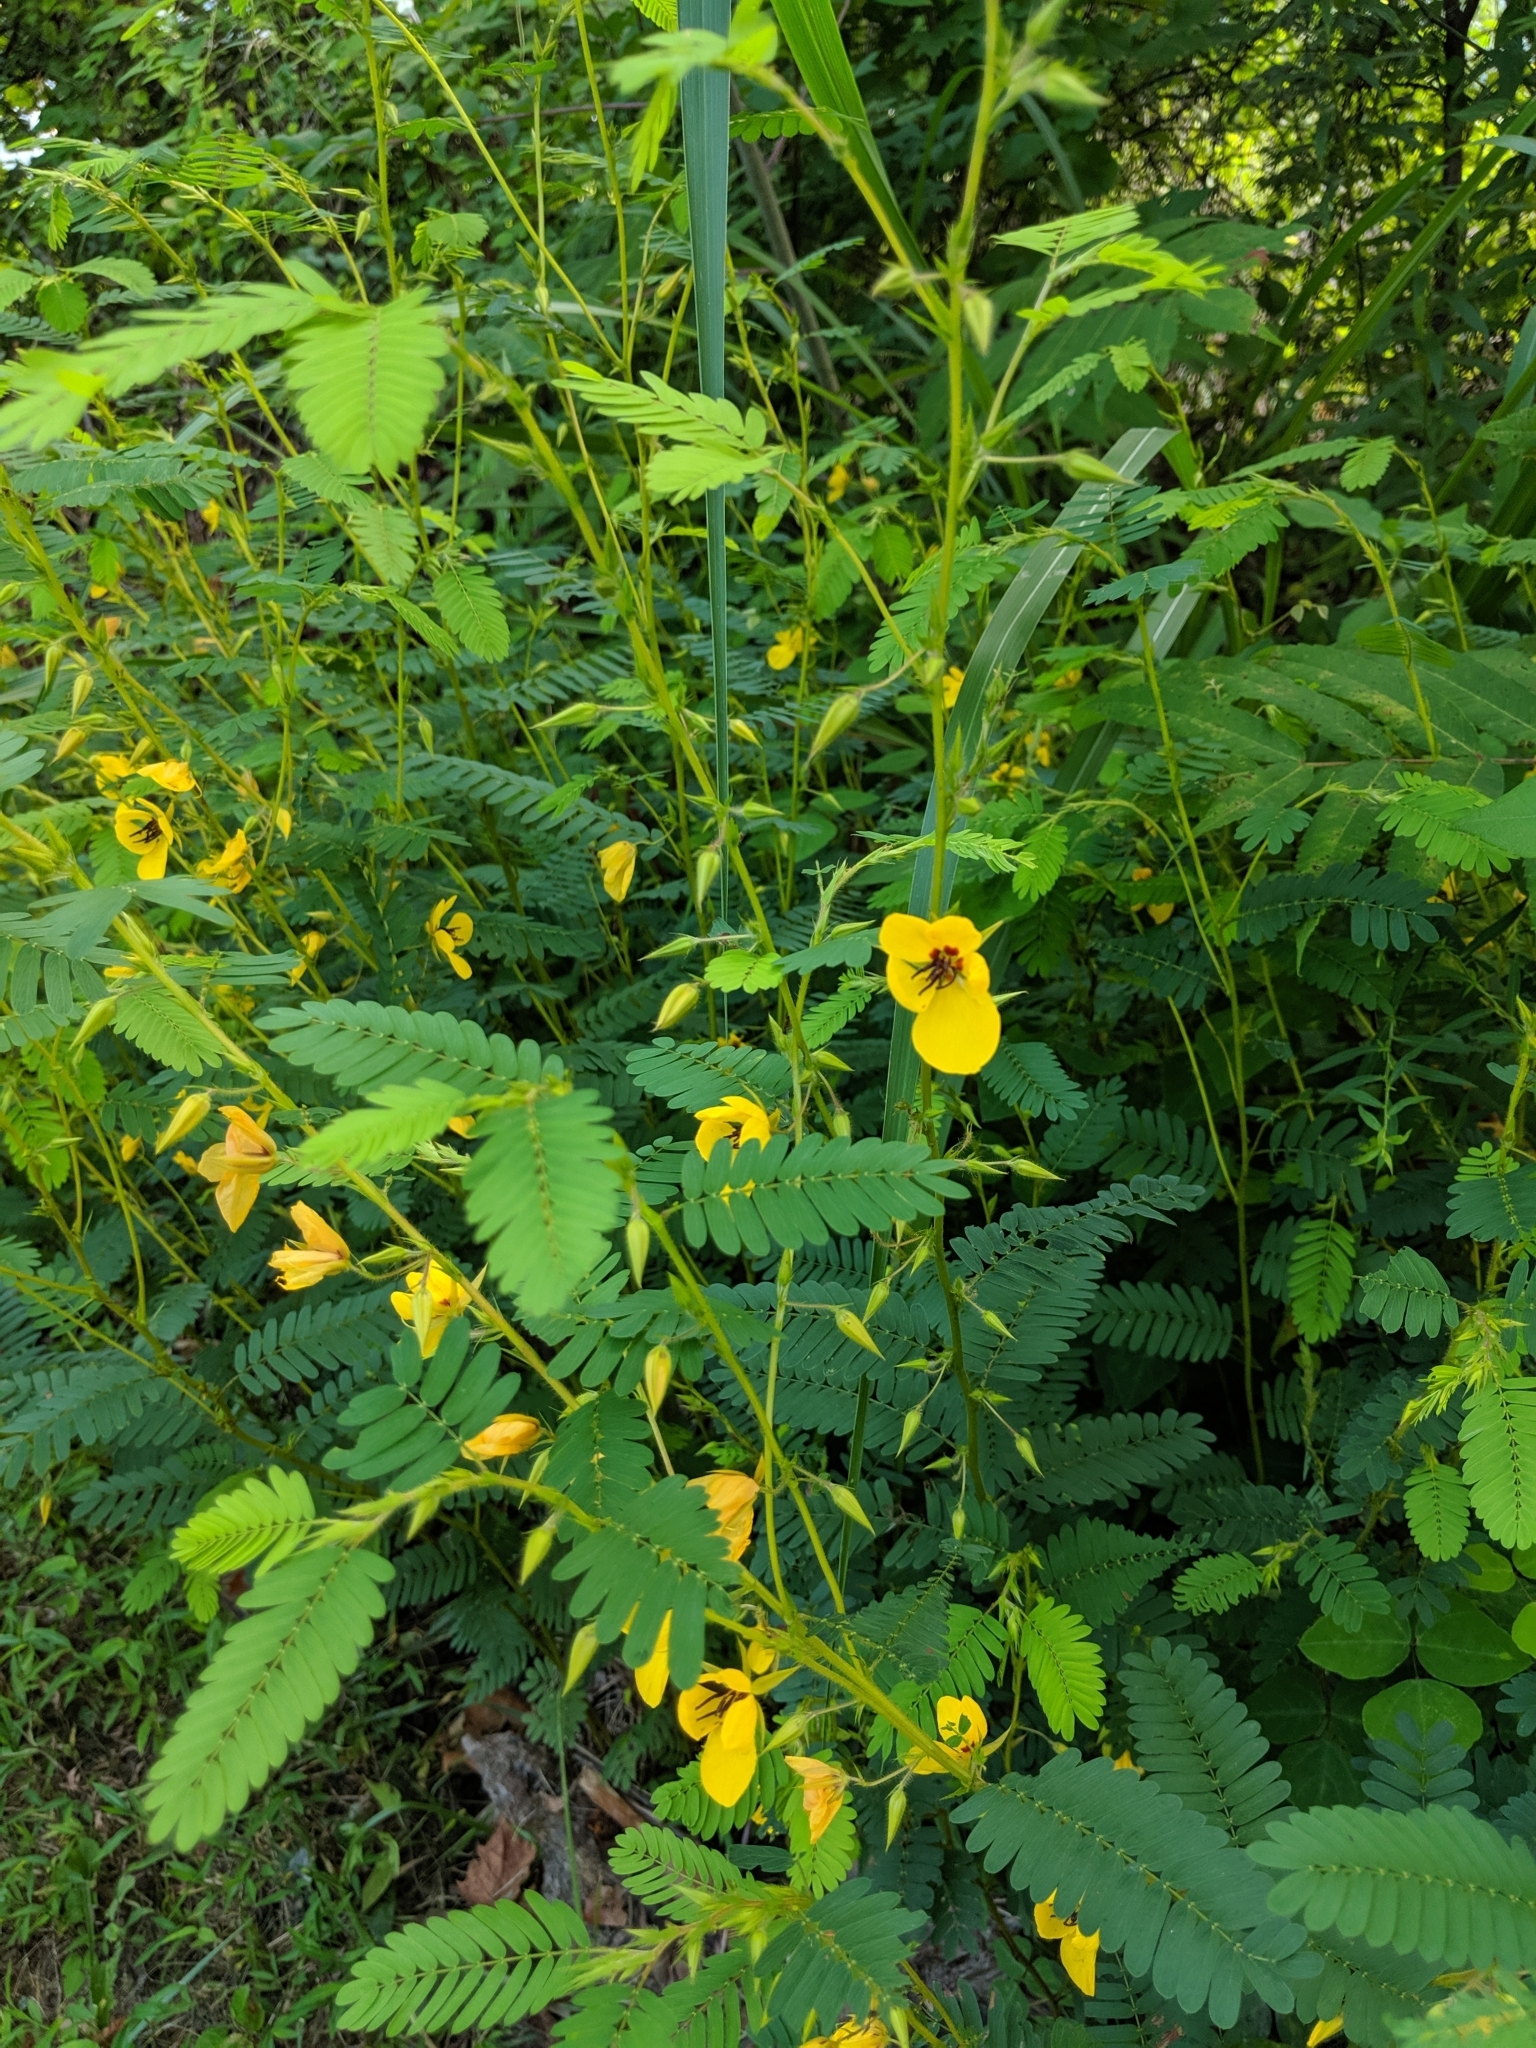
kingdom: Plantae
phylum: Tracheophyta
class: Magnoliopsida
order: Fabales
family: Fabaceae
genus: Chamaecrista
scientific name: Chamaecrista fasciculata
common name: Golden cassia
